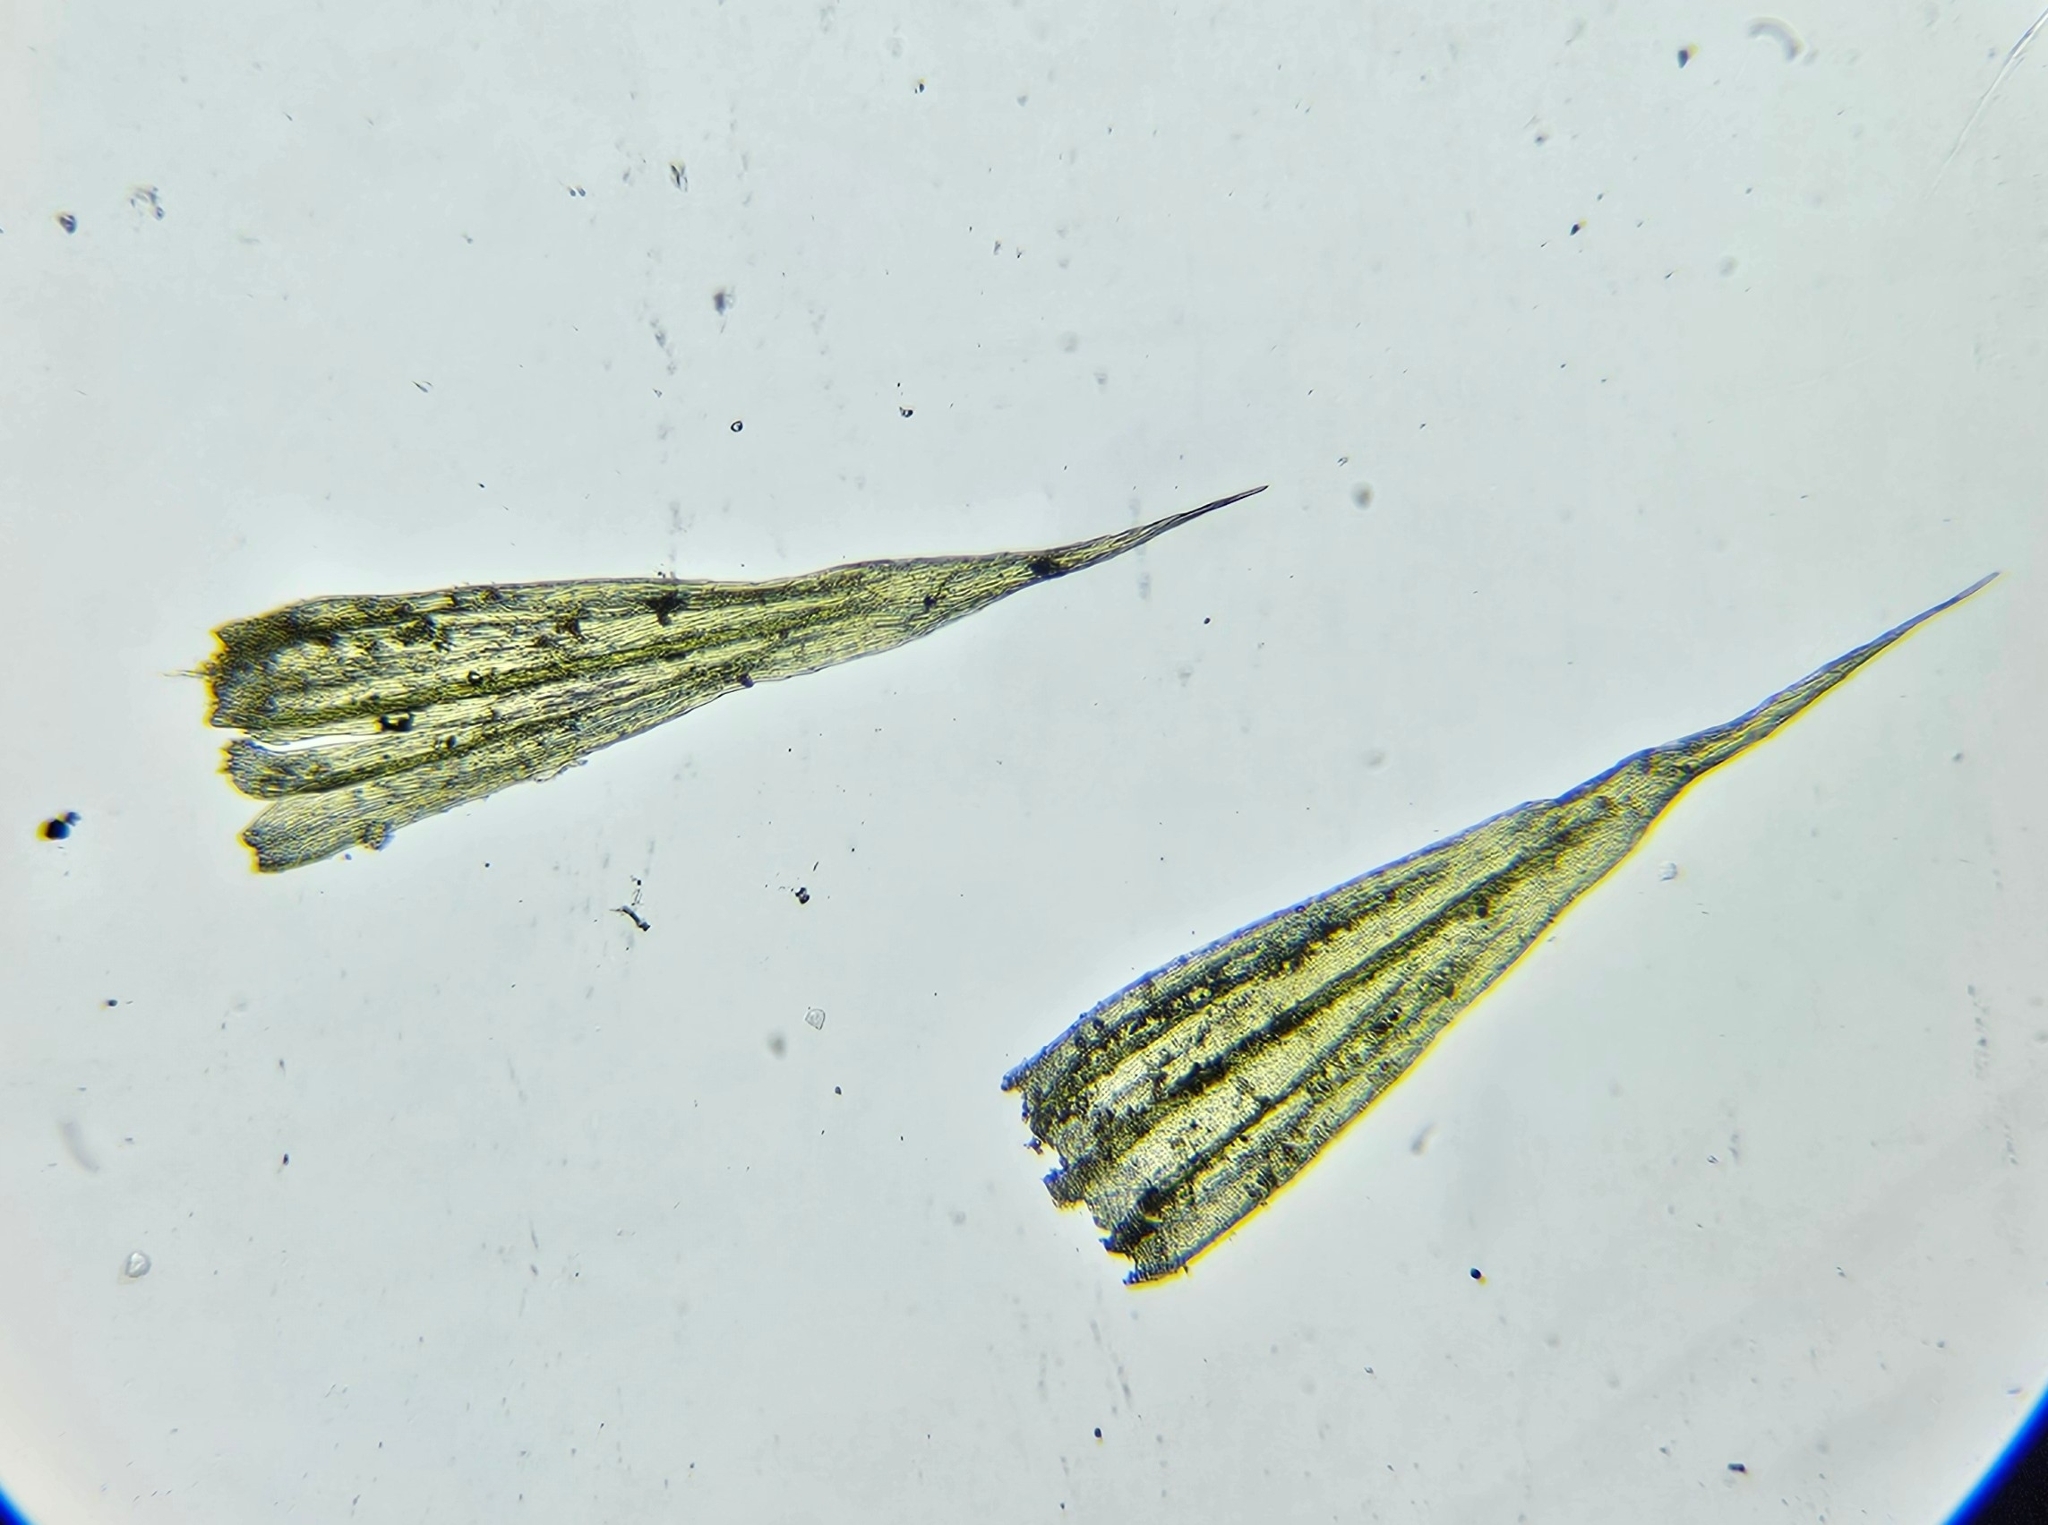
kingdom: Plantae
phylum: Bryophyta
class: Bryopsida
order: Hypnales
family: Brachytheciaceae
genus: Homalothecium
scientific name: Homalothecium sericeum
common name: Silky wall feather-moss
